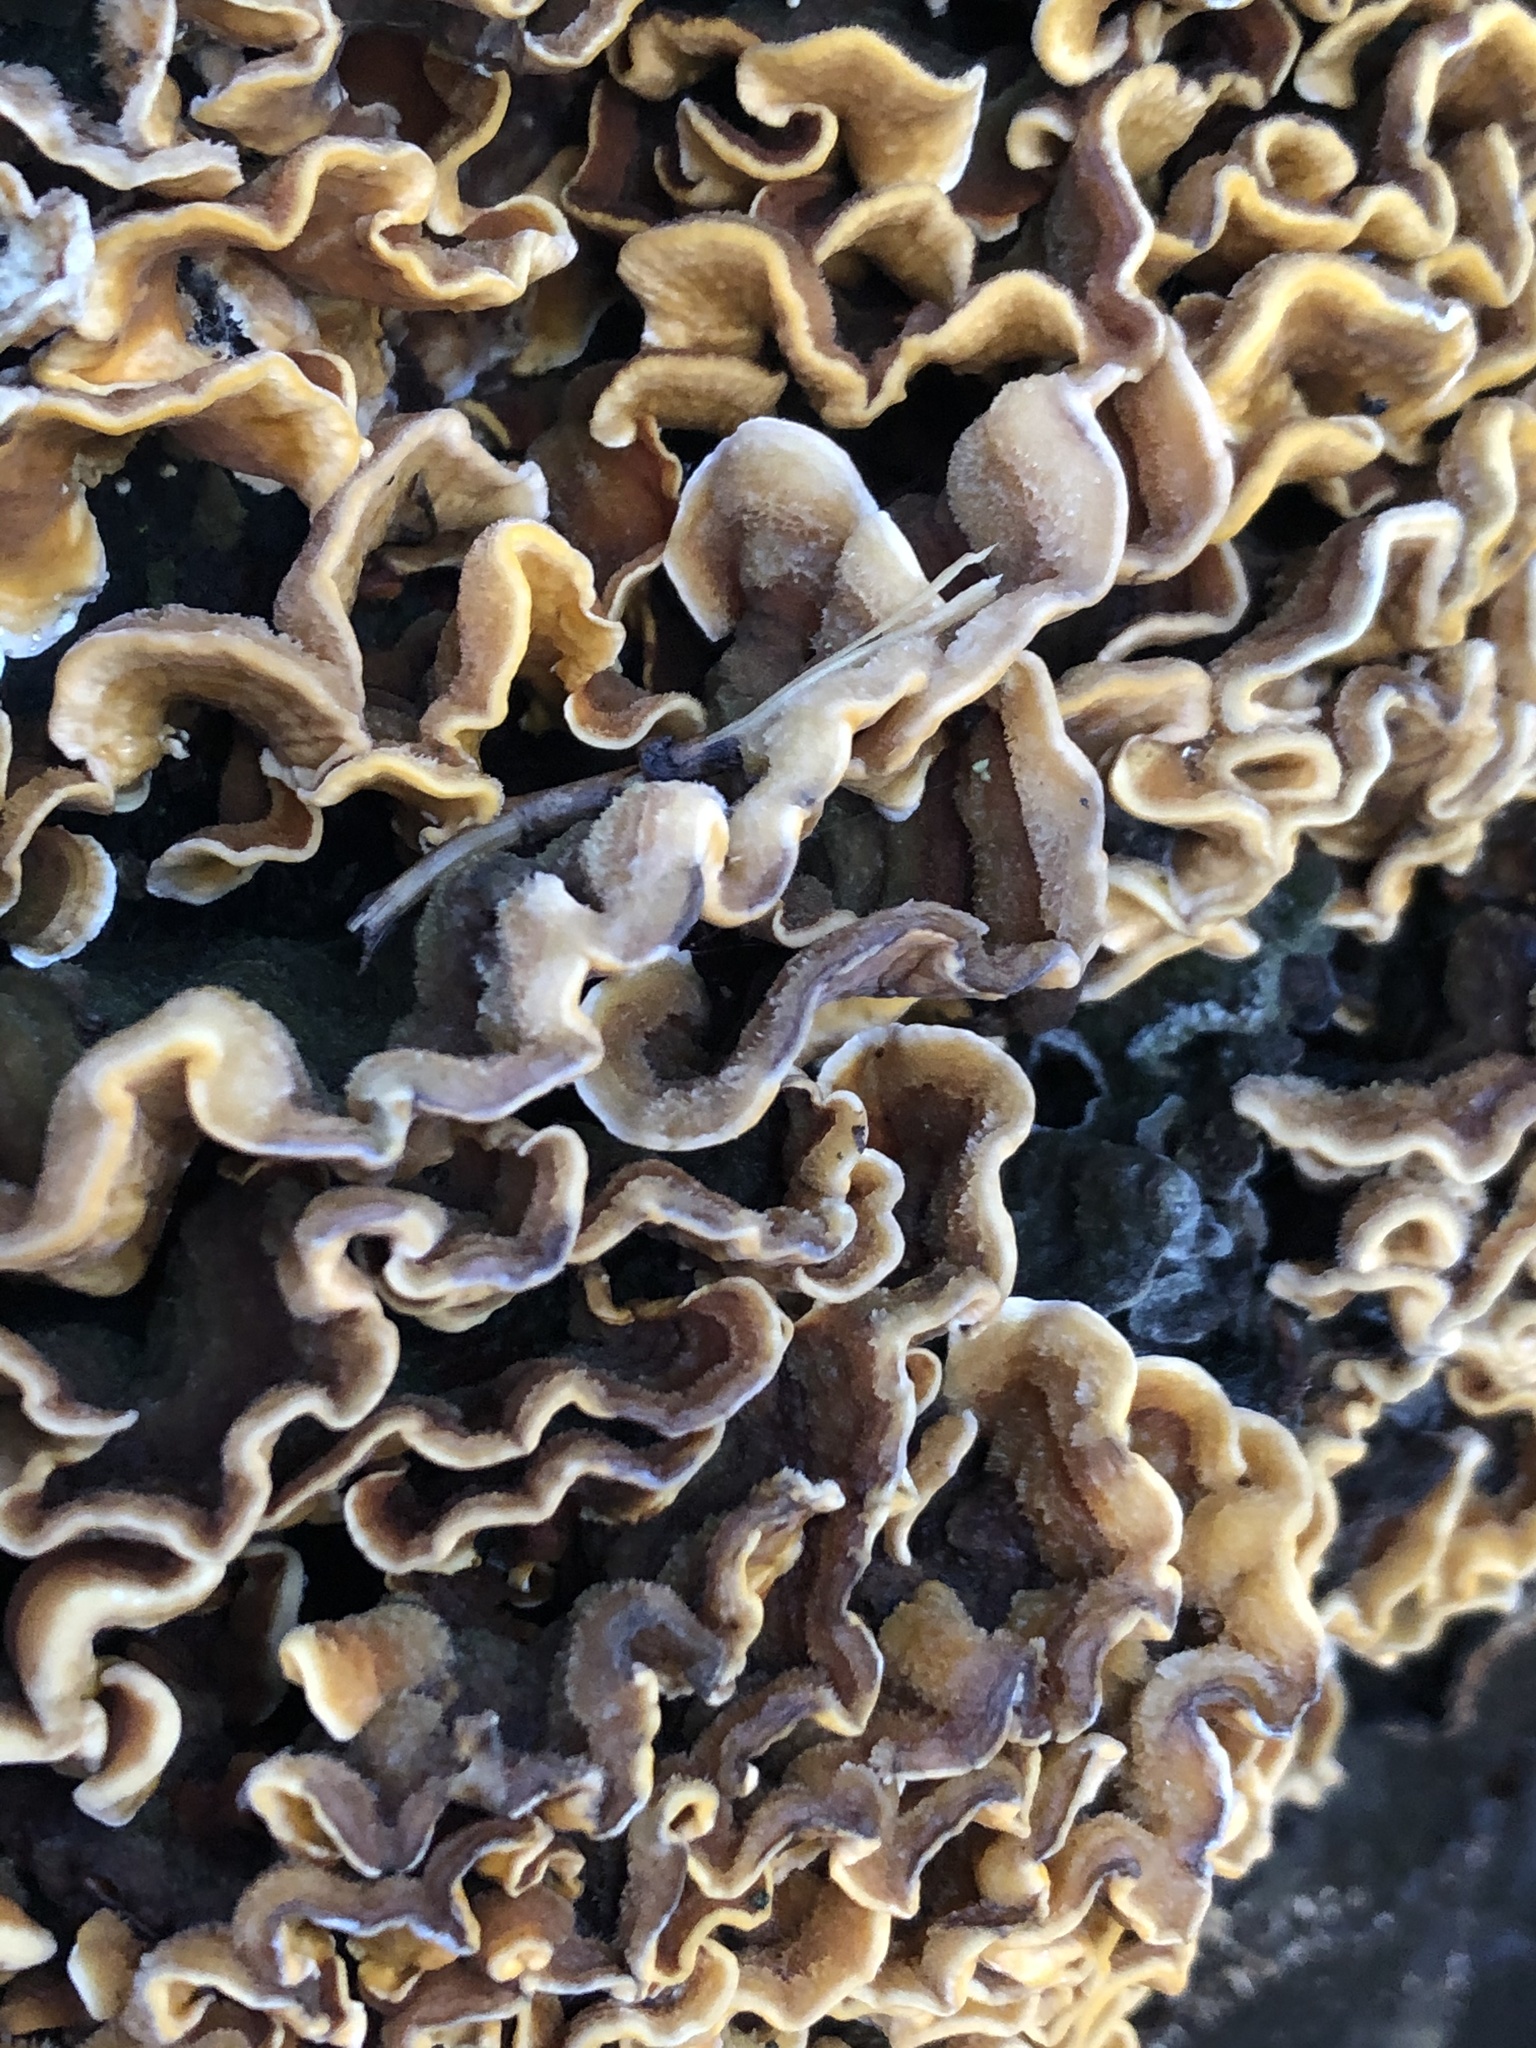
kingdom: Fungi
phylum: Basidiomycota
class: Agaricomycetes
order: Russulales
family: Stereaceae
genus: Stereum
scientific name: Stereum hirsutum
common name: Hairy curtain crust
